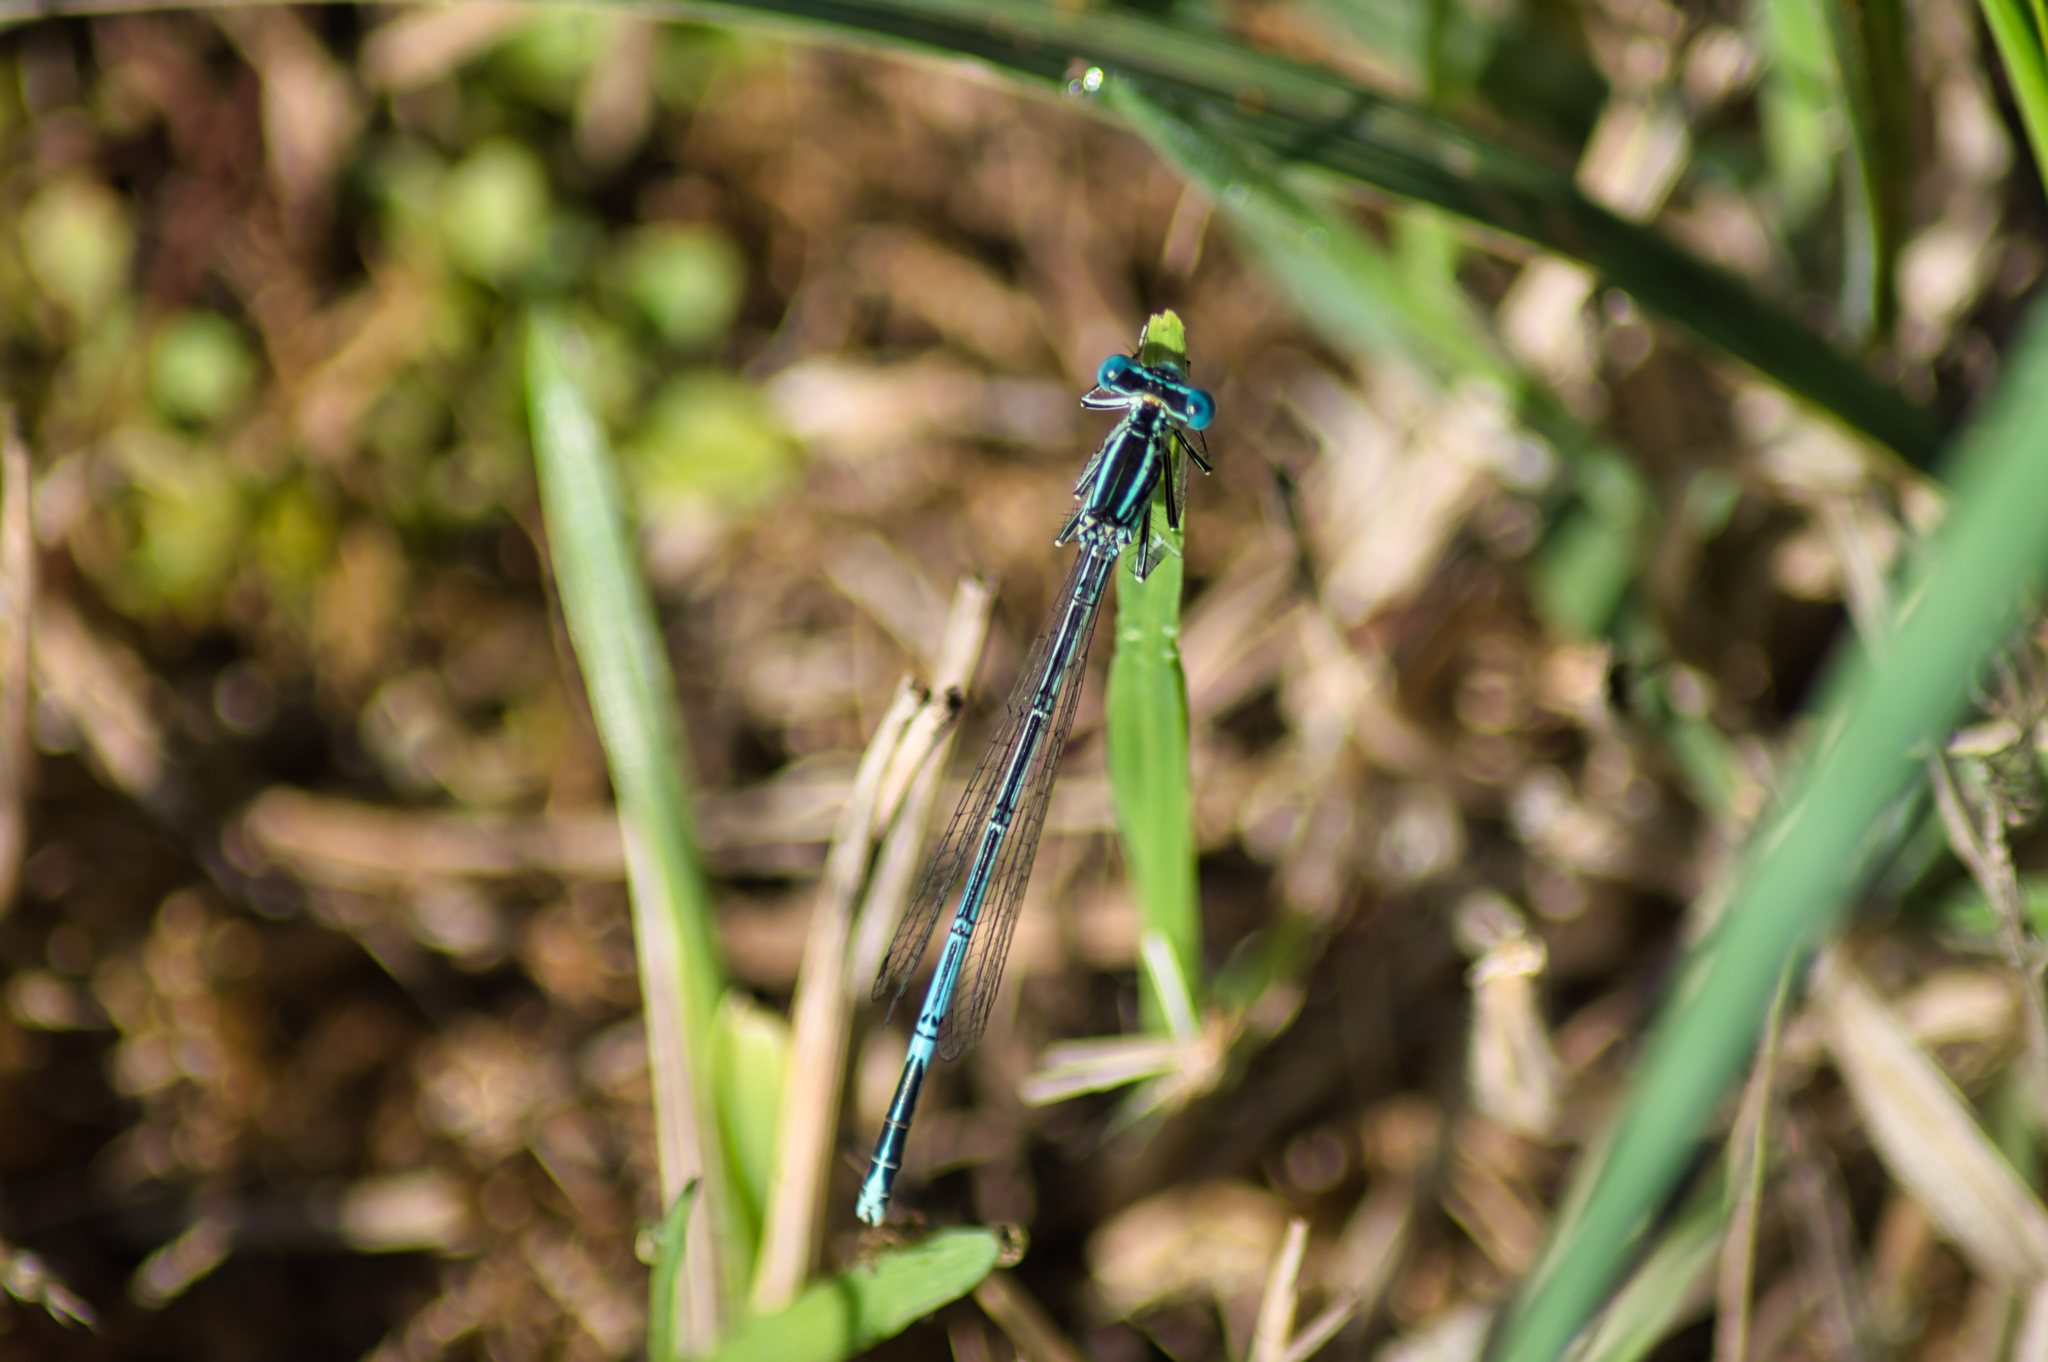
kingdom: Animalia
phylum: Arthropoda
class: Insecta
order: Odonata
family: Platycnemididae
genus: Platycnemis
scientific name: Platycnemis pennipes
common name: White-legged damselfly
